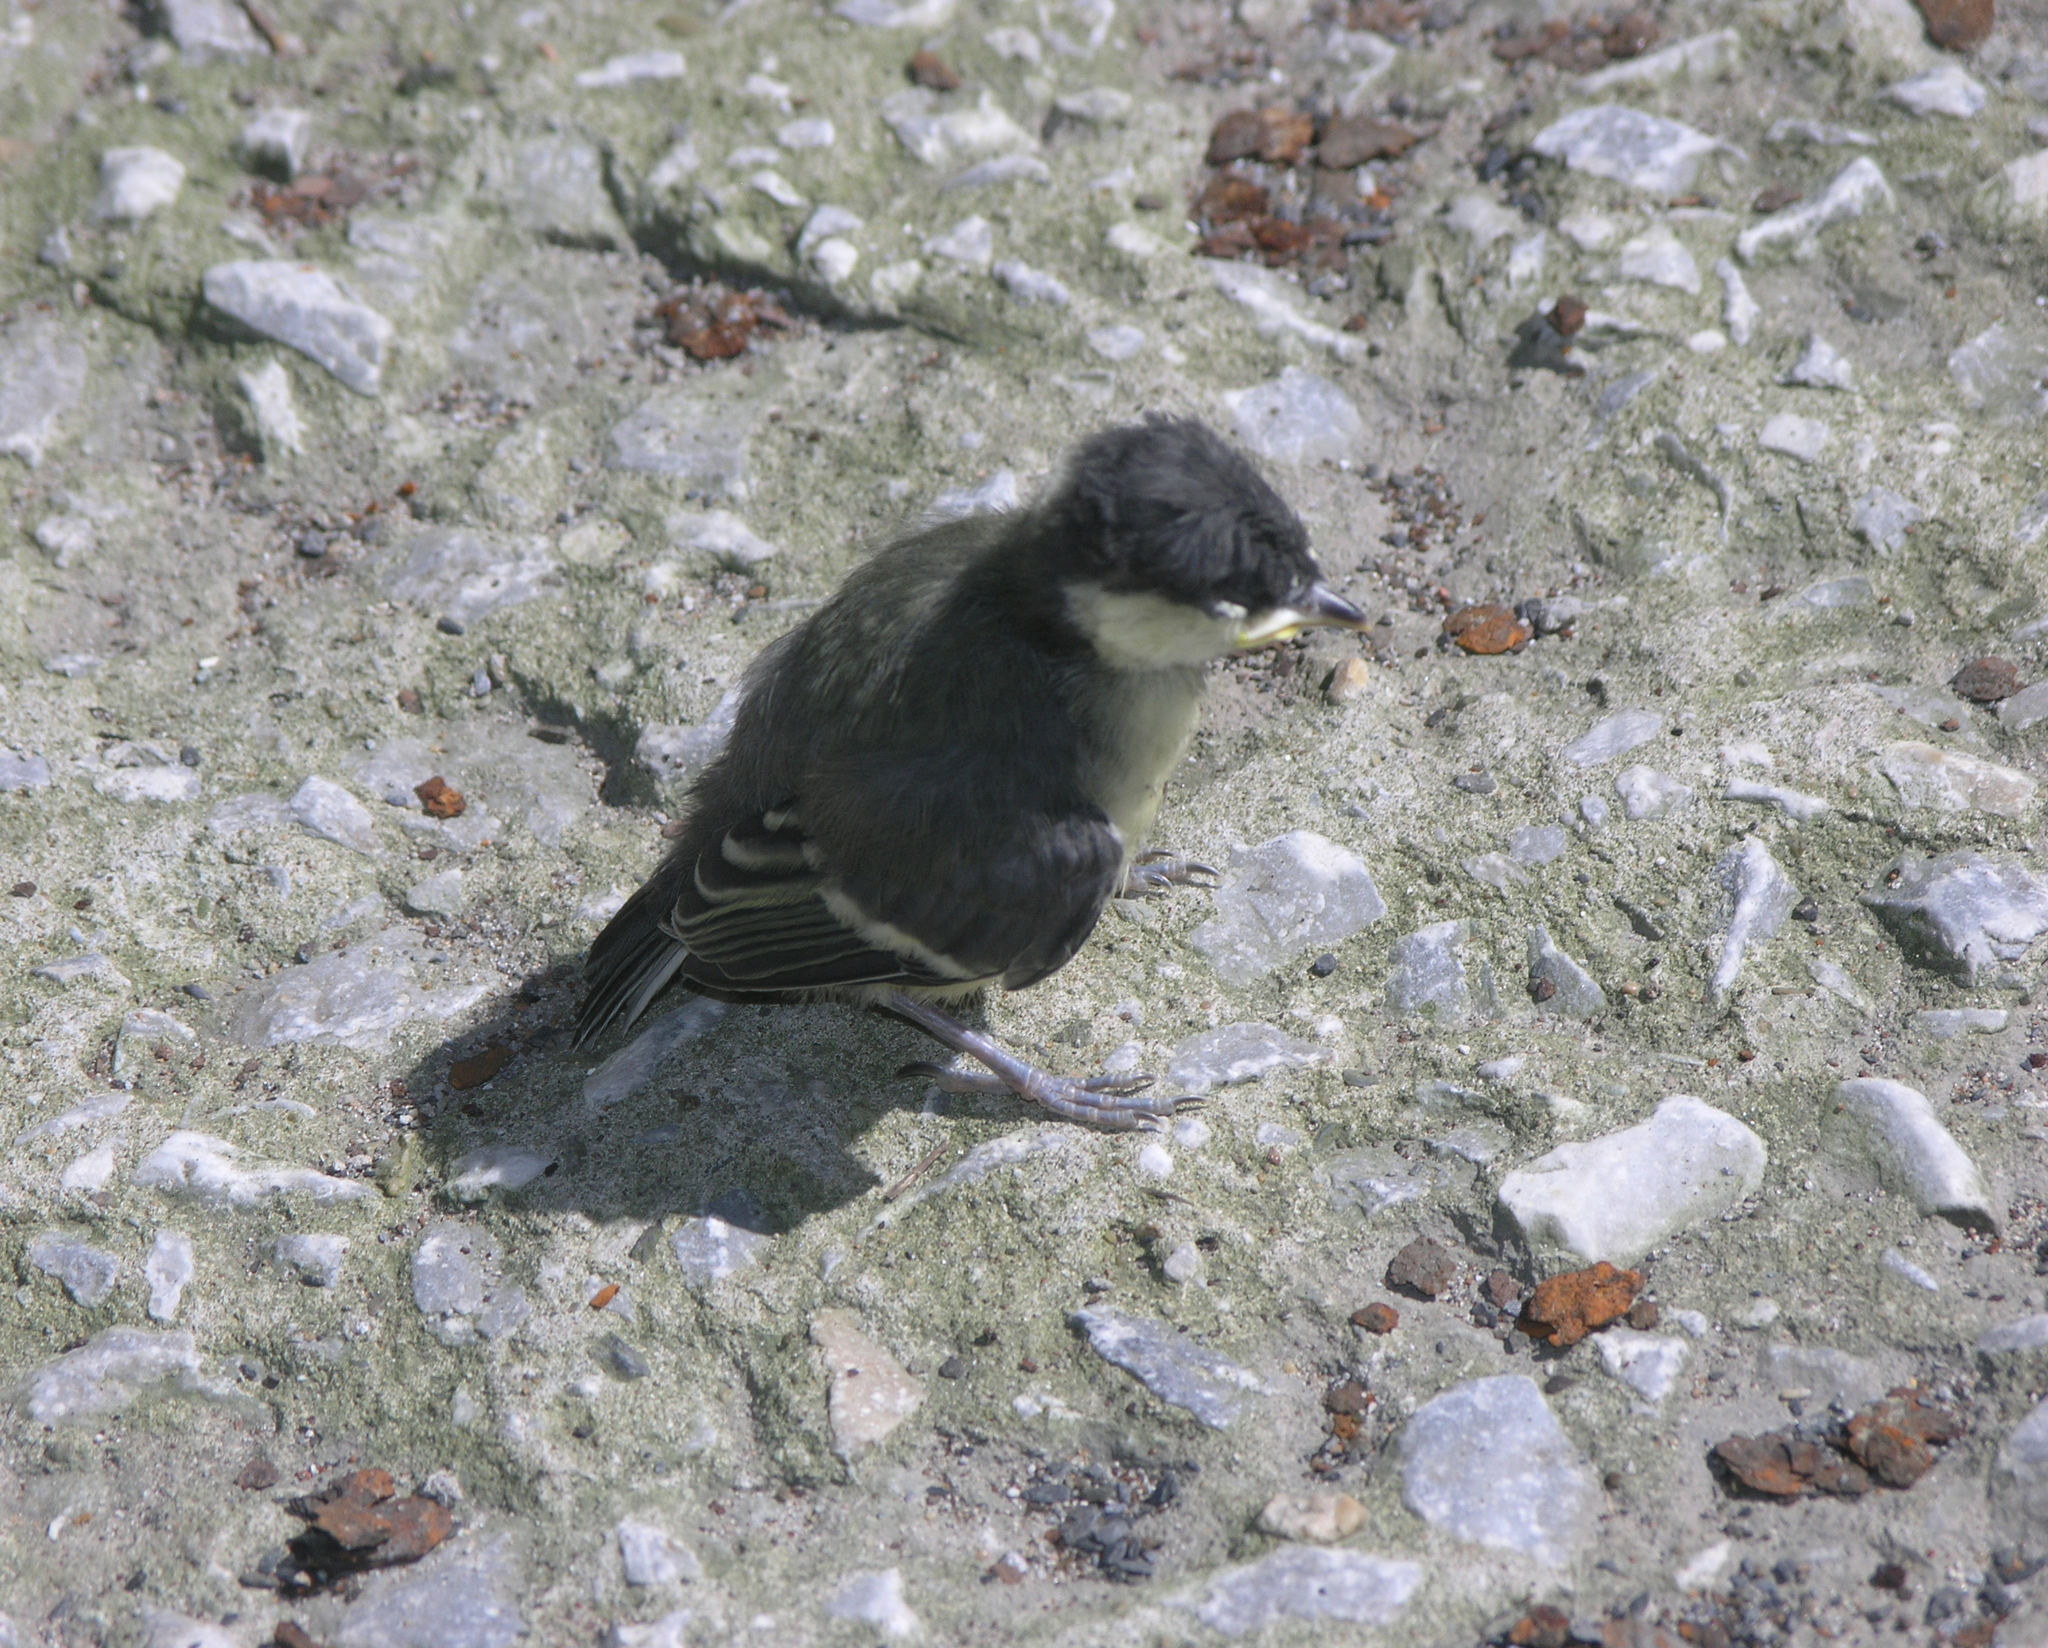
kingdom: Animalia
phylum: Chordata
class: Aves
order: Passeriformes
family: Paridae
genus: Parus
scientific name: Parus major
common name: Great tit
